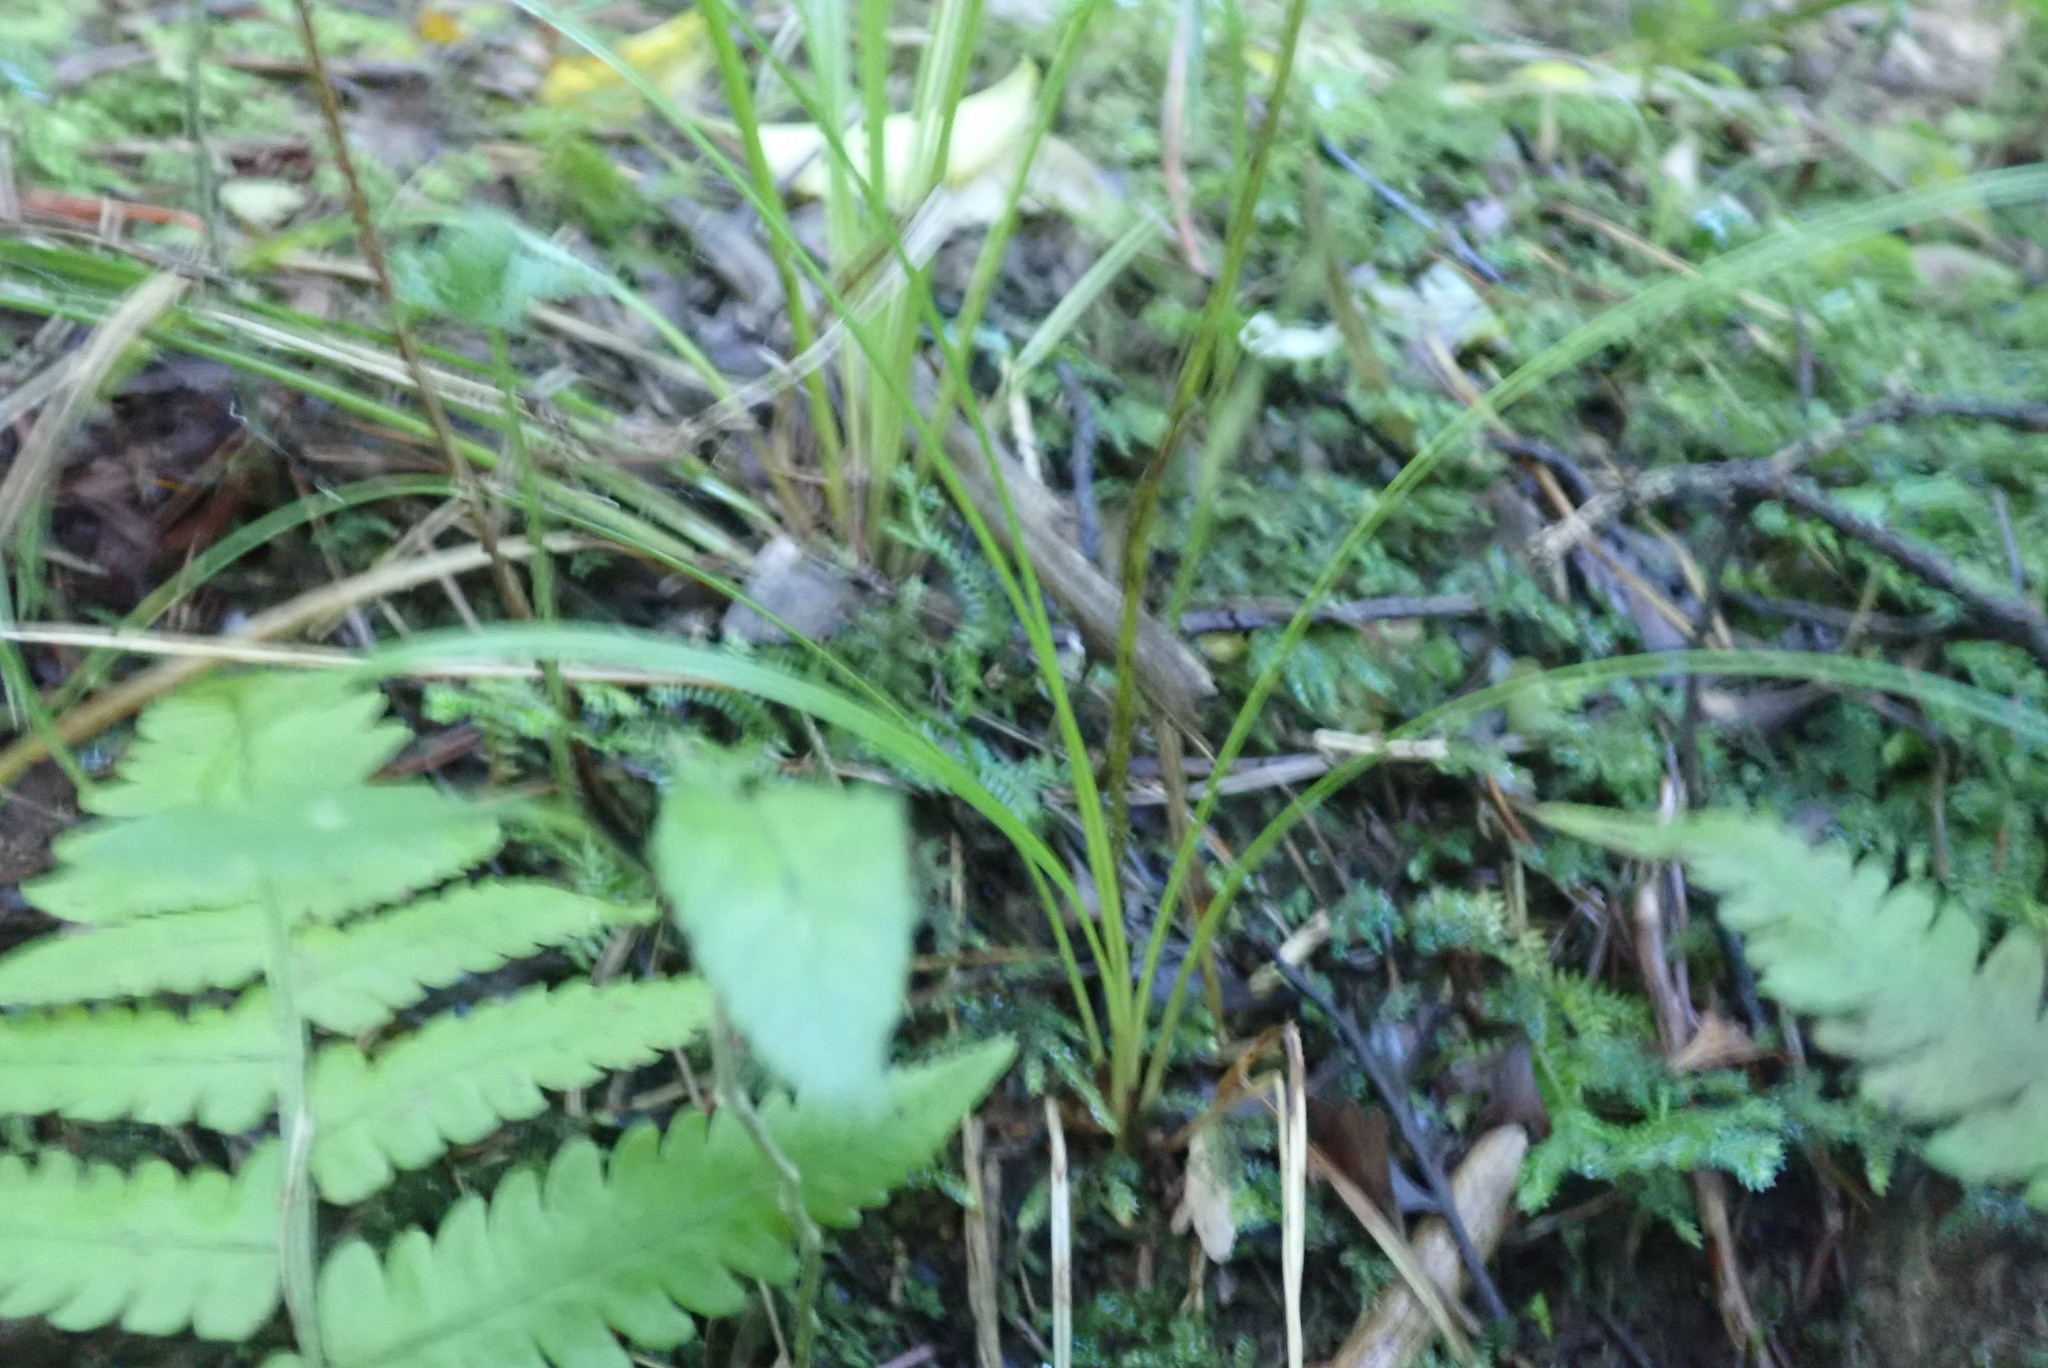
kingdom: Plantae
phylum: Tracheophyta
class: Lycopodiopsida
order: Selaginellales
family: Selaginellaceae
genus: Selaginella
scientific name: Selaginella kraussiana
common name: Krauss' spikemoss
